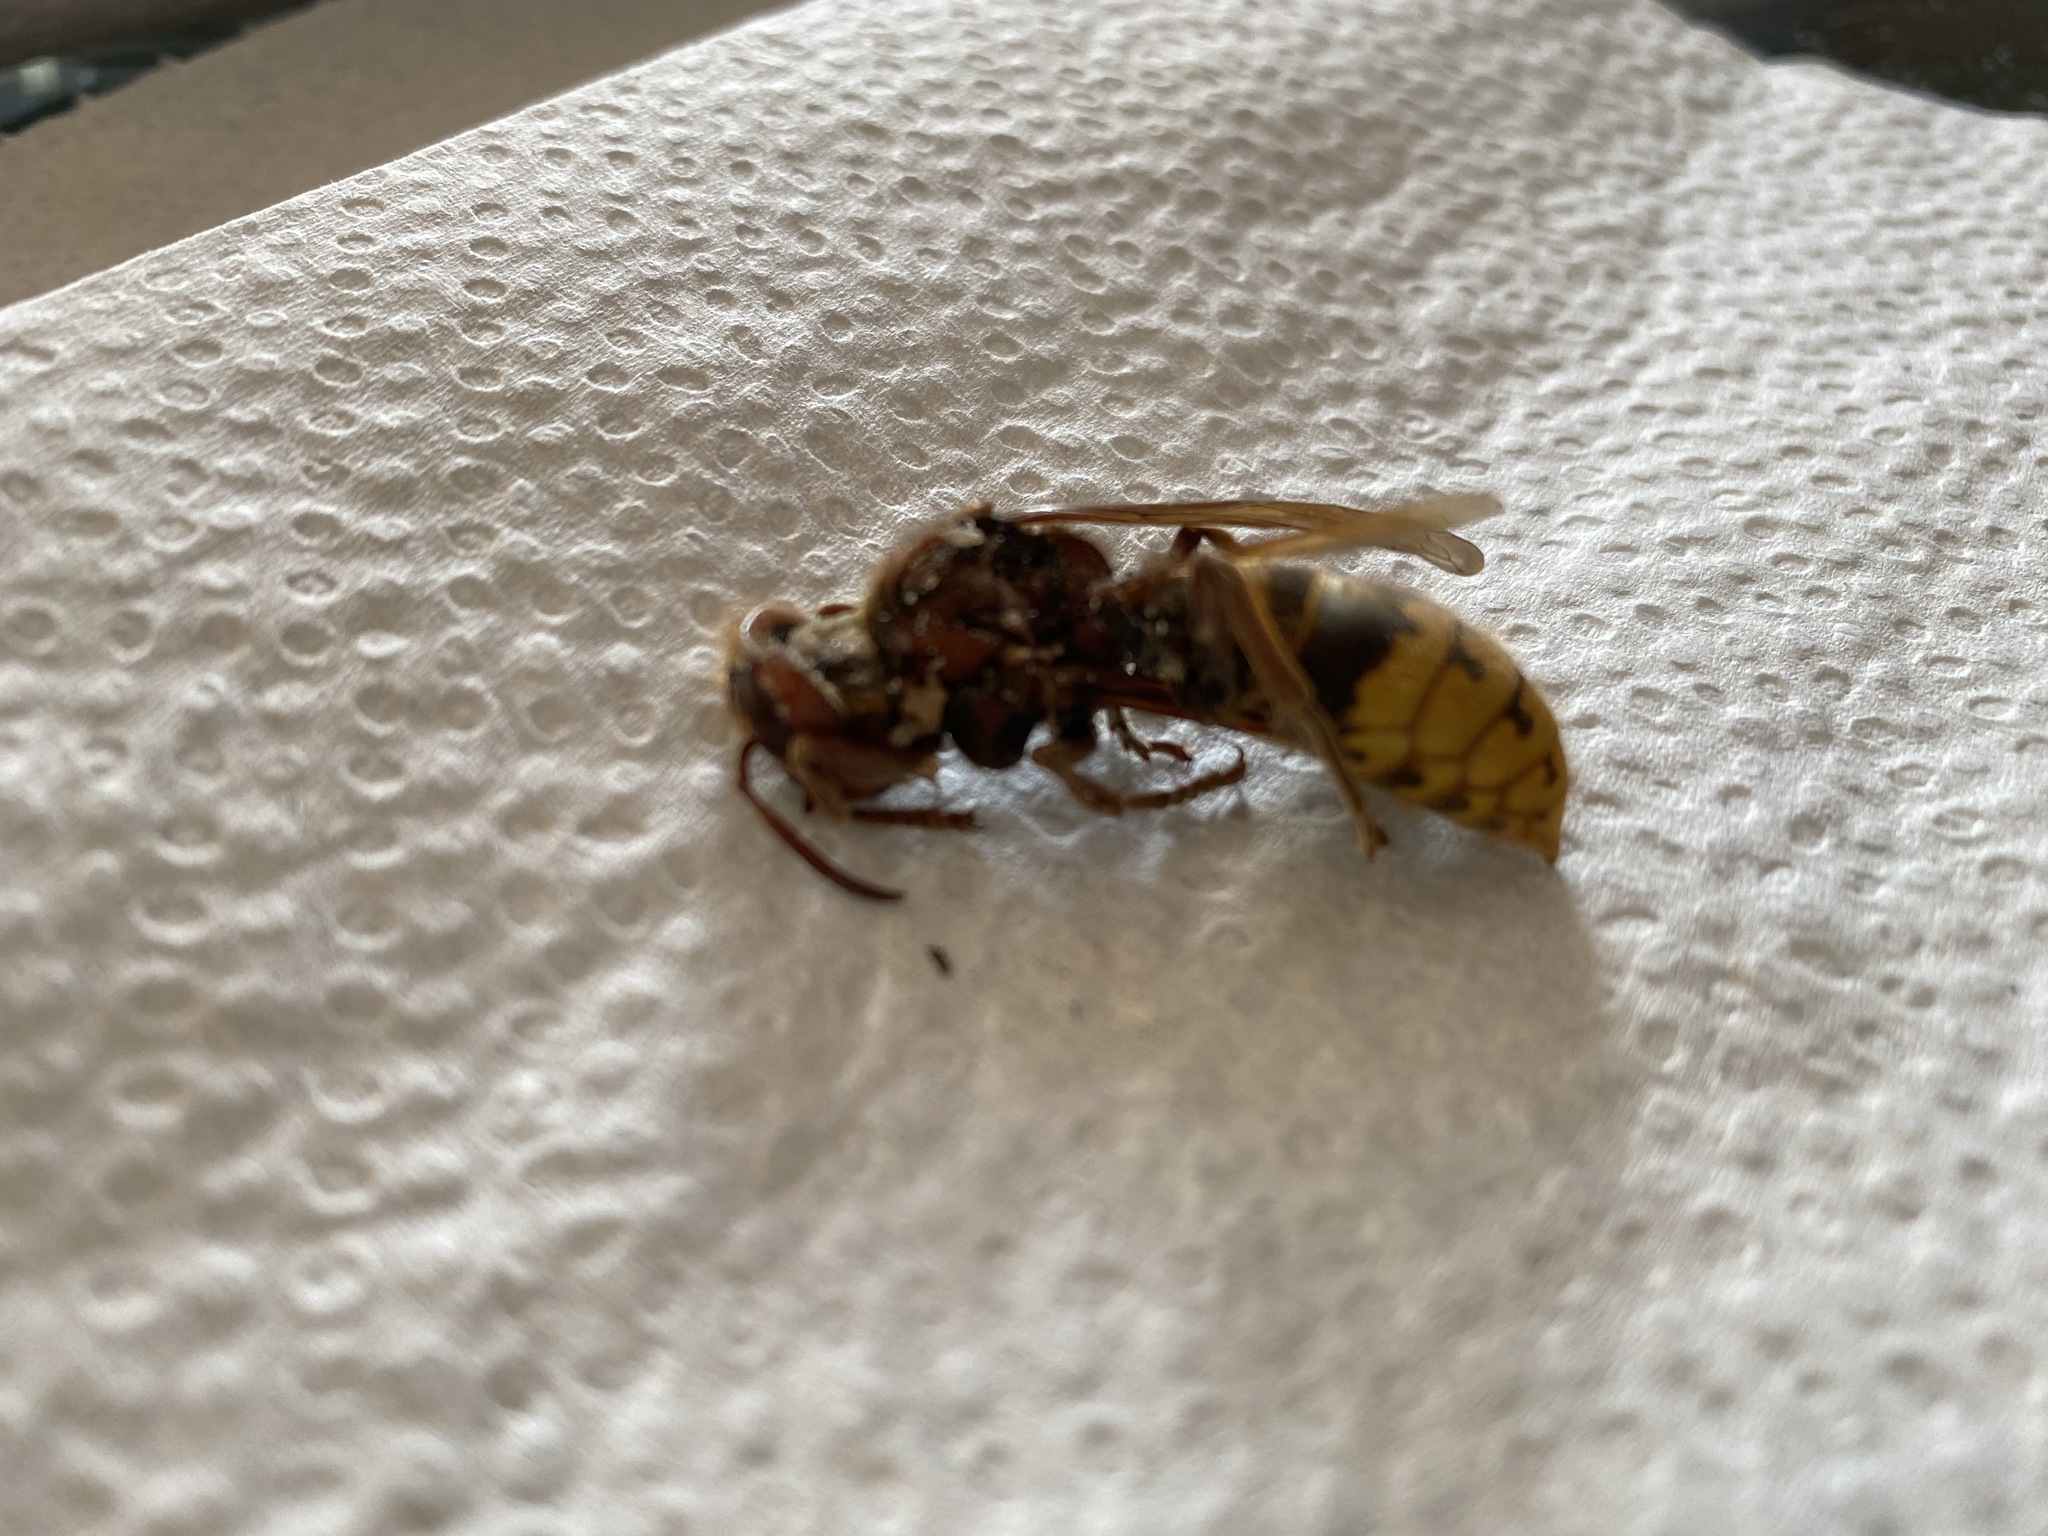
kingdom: Animalia
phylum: Arthropoda
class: Insecta
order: Hymenoptera
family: Vespidae
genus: Vespa
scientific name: Vespa crabro
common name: Hornet
